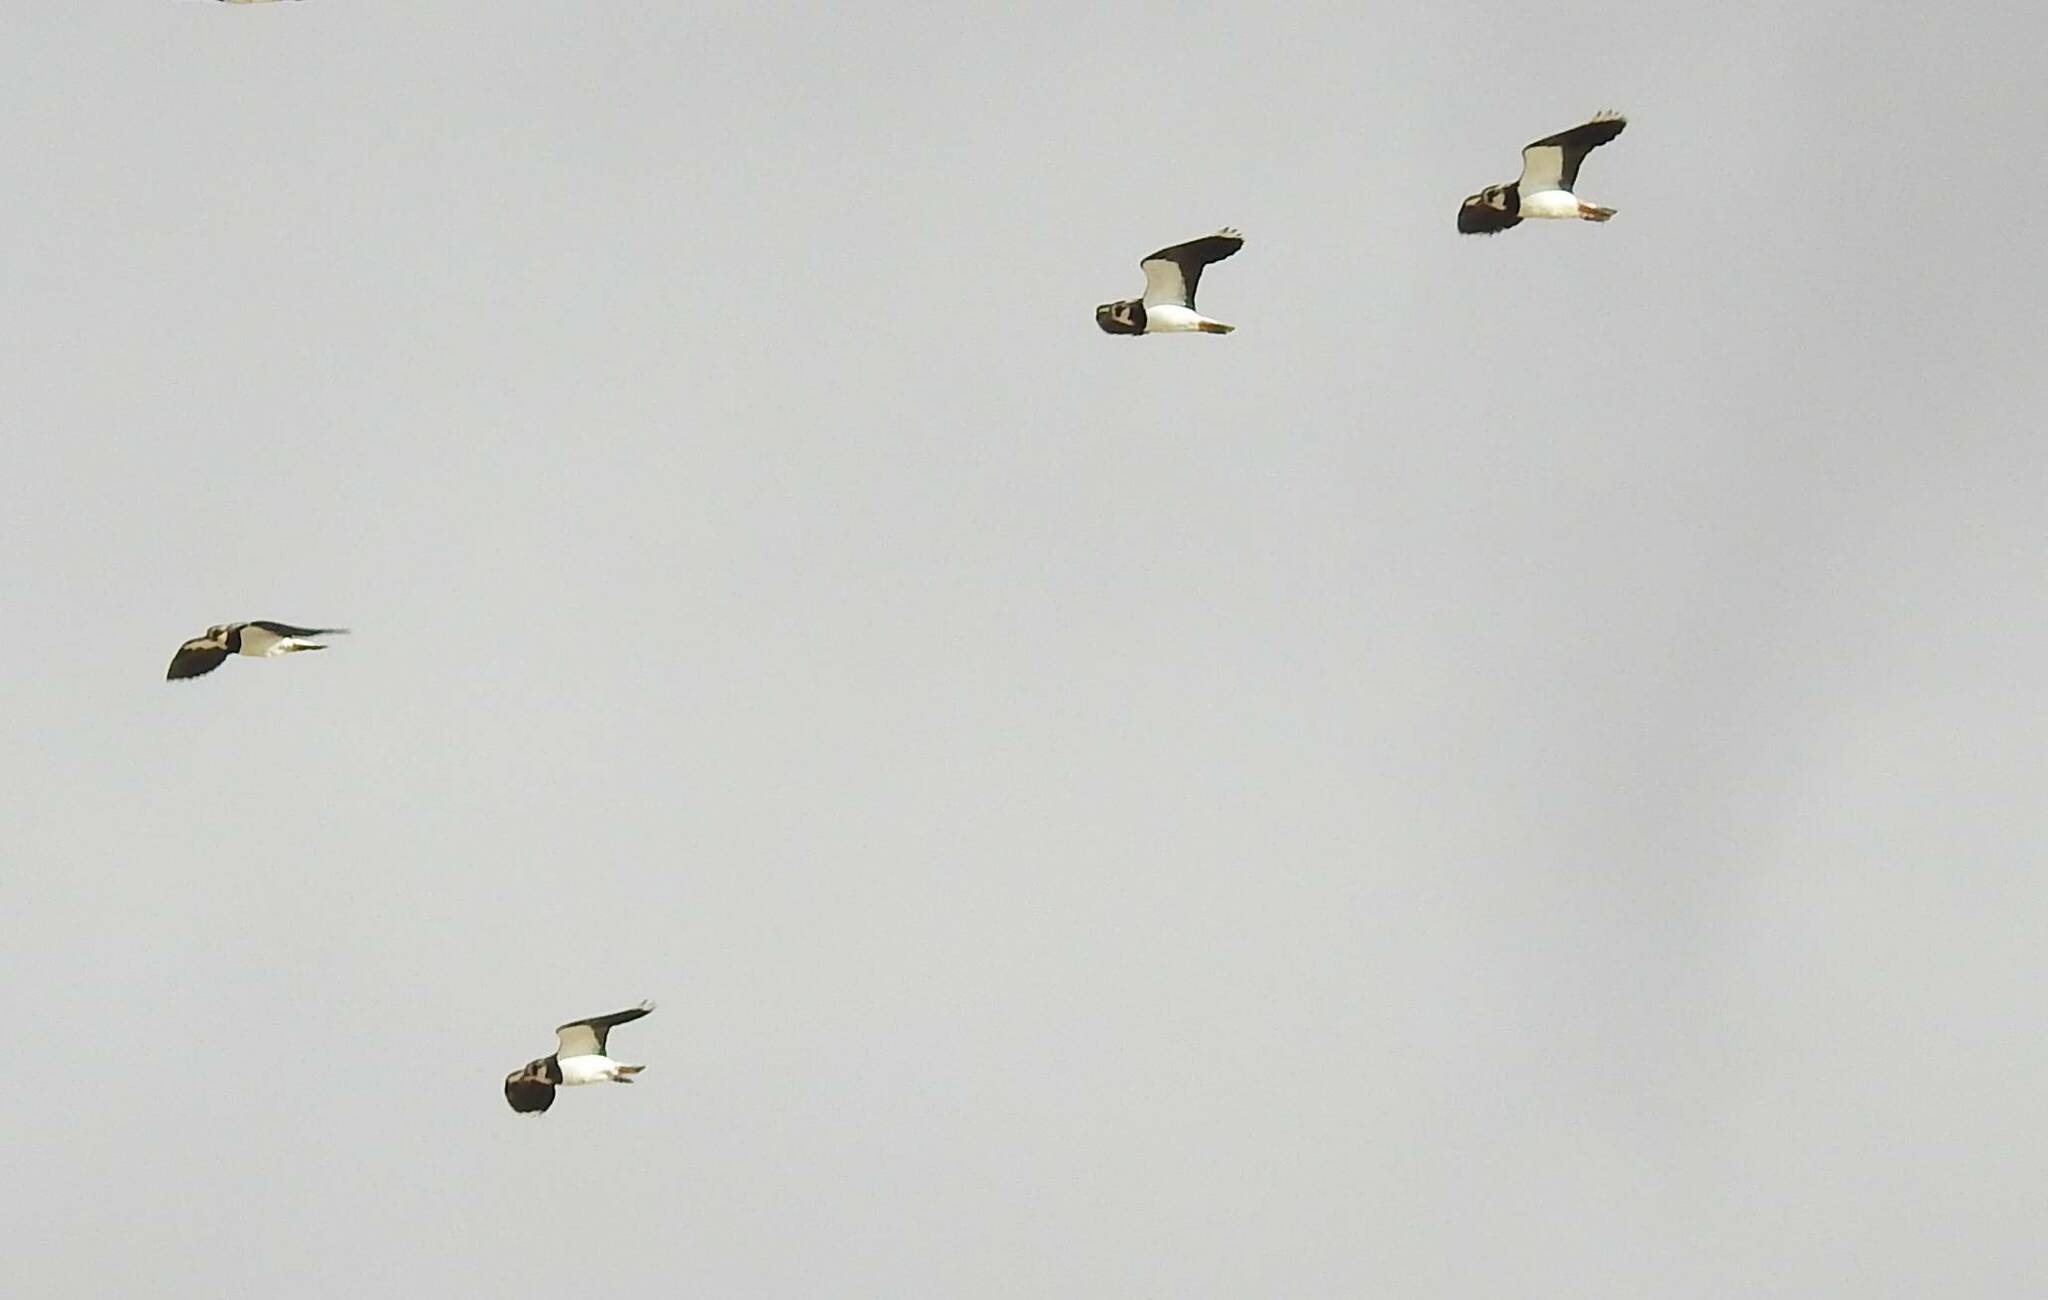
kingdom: Animalia
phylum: Chordata
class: Aves
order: Charadriiformes
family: Charadriidae
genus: Vanellus
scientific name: Vanellus vanellus
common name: Northern lapwing
